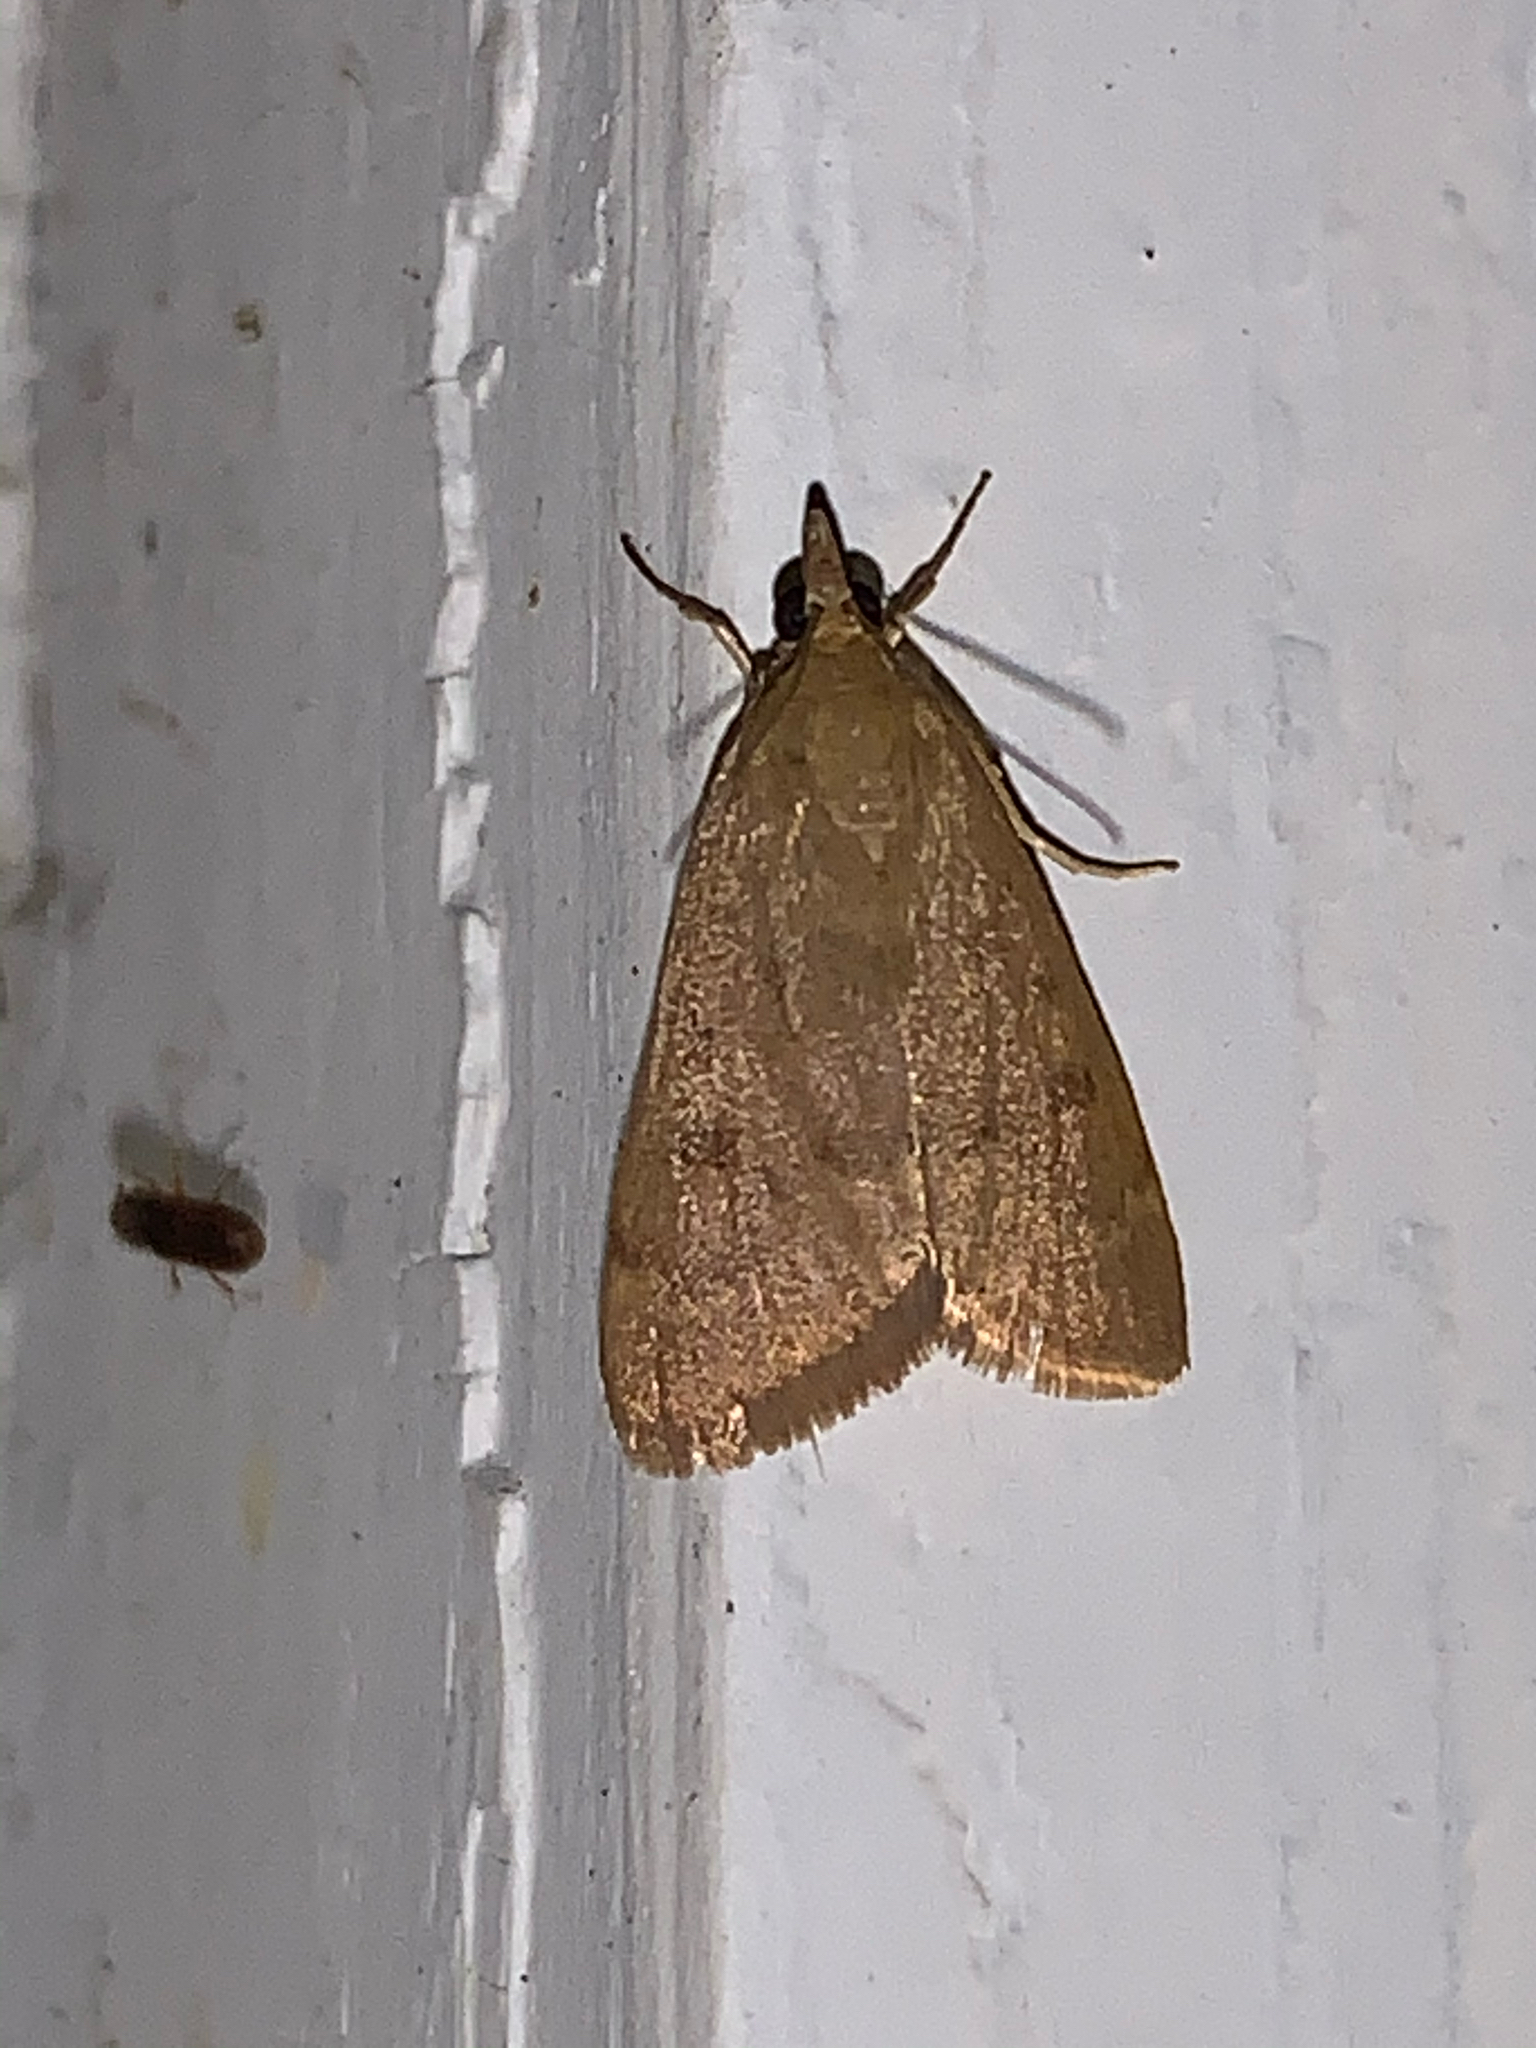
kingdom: Animalia
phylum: Arthropoda
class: Insecta
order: Lepidoptera
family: Crambidae
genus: Achyra
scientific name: Achyra rantalis
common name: Garden webworm
